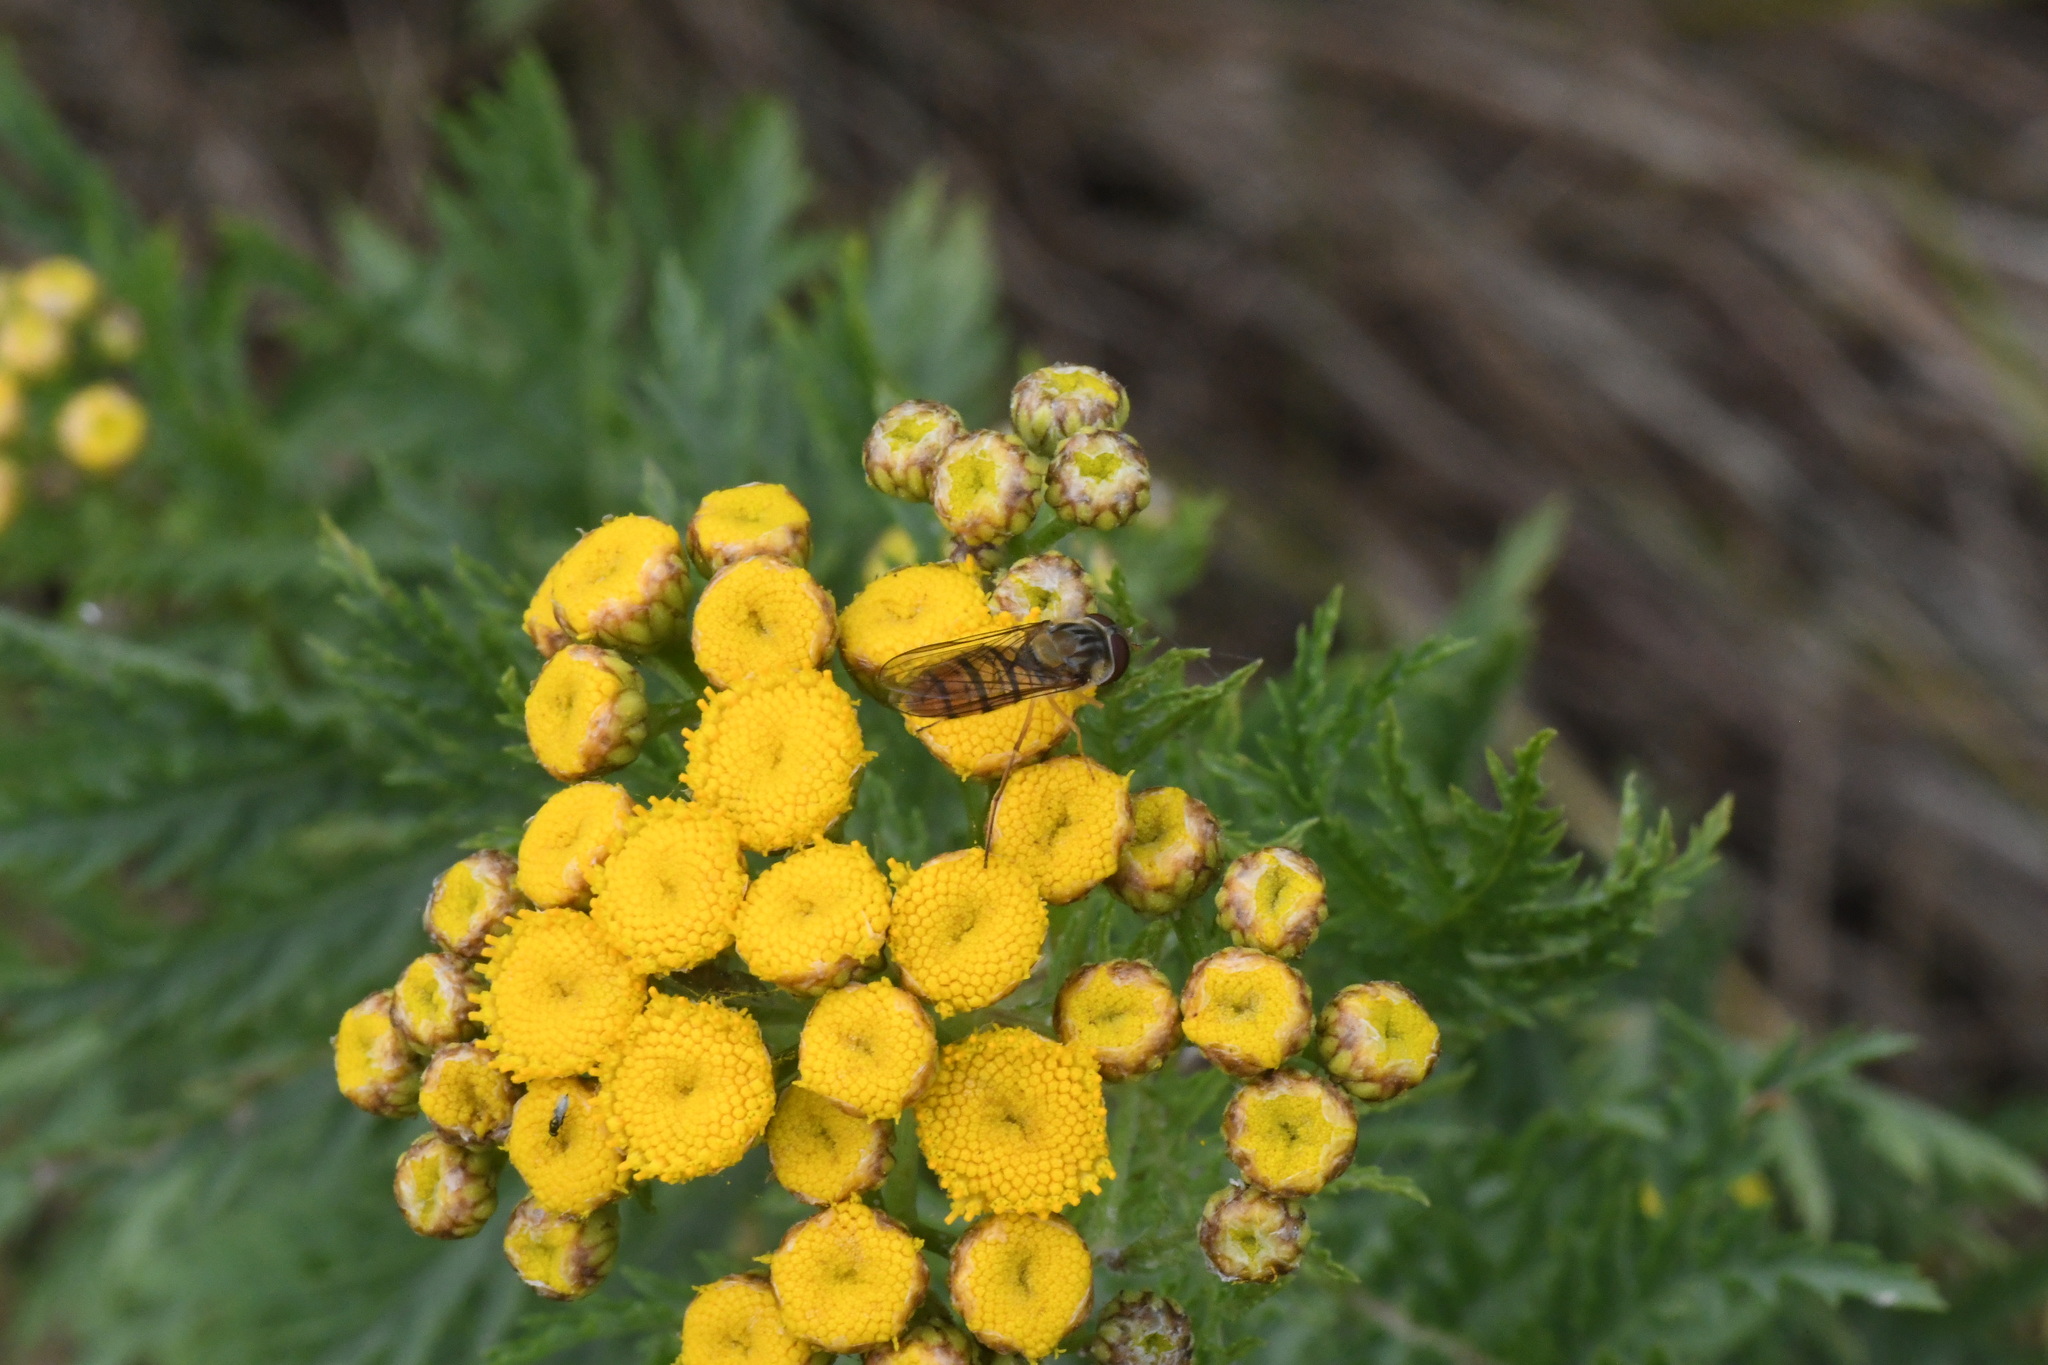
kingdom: Animalia
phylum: Arthropoda
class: Insecta
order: Diptera
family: Syrphidae
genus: Episyrphus
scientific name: Episyrphus balteatus
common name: Marmalade hoverfly
